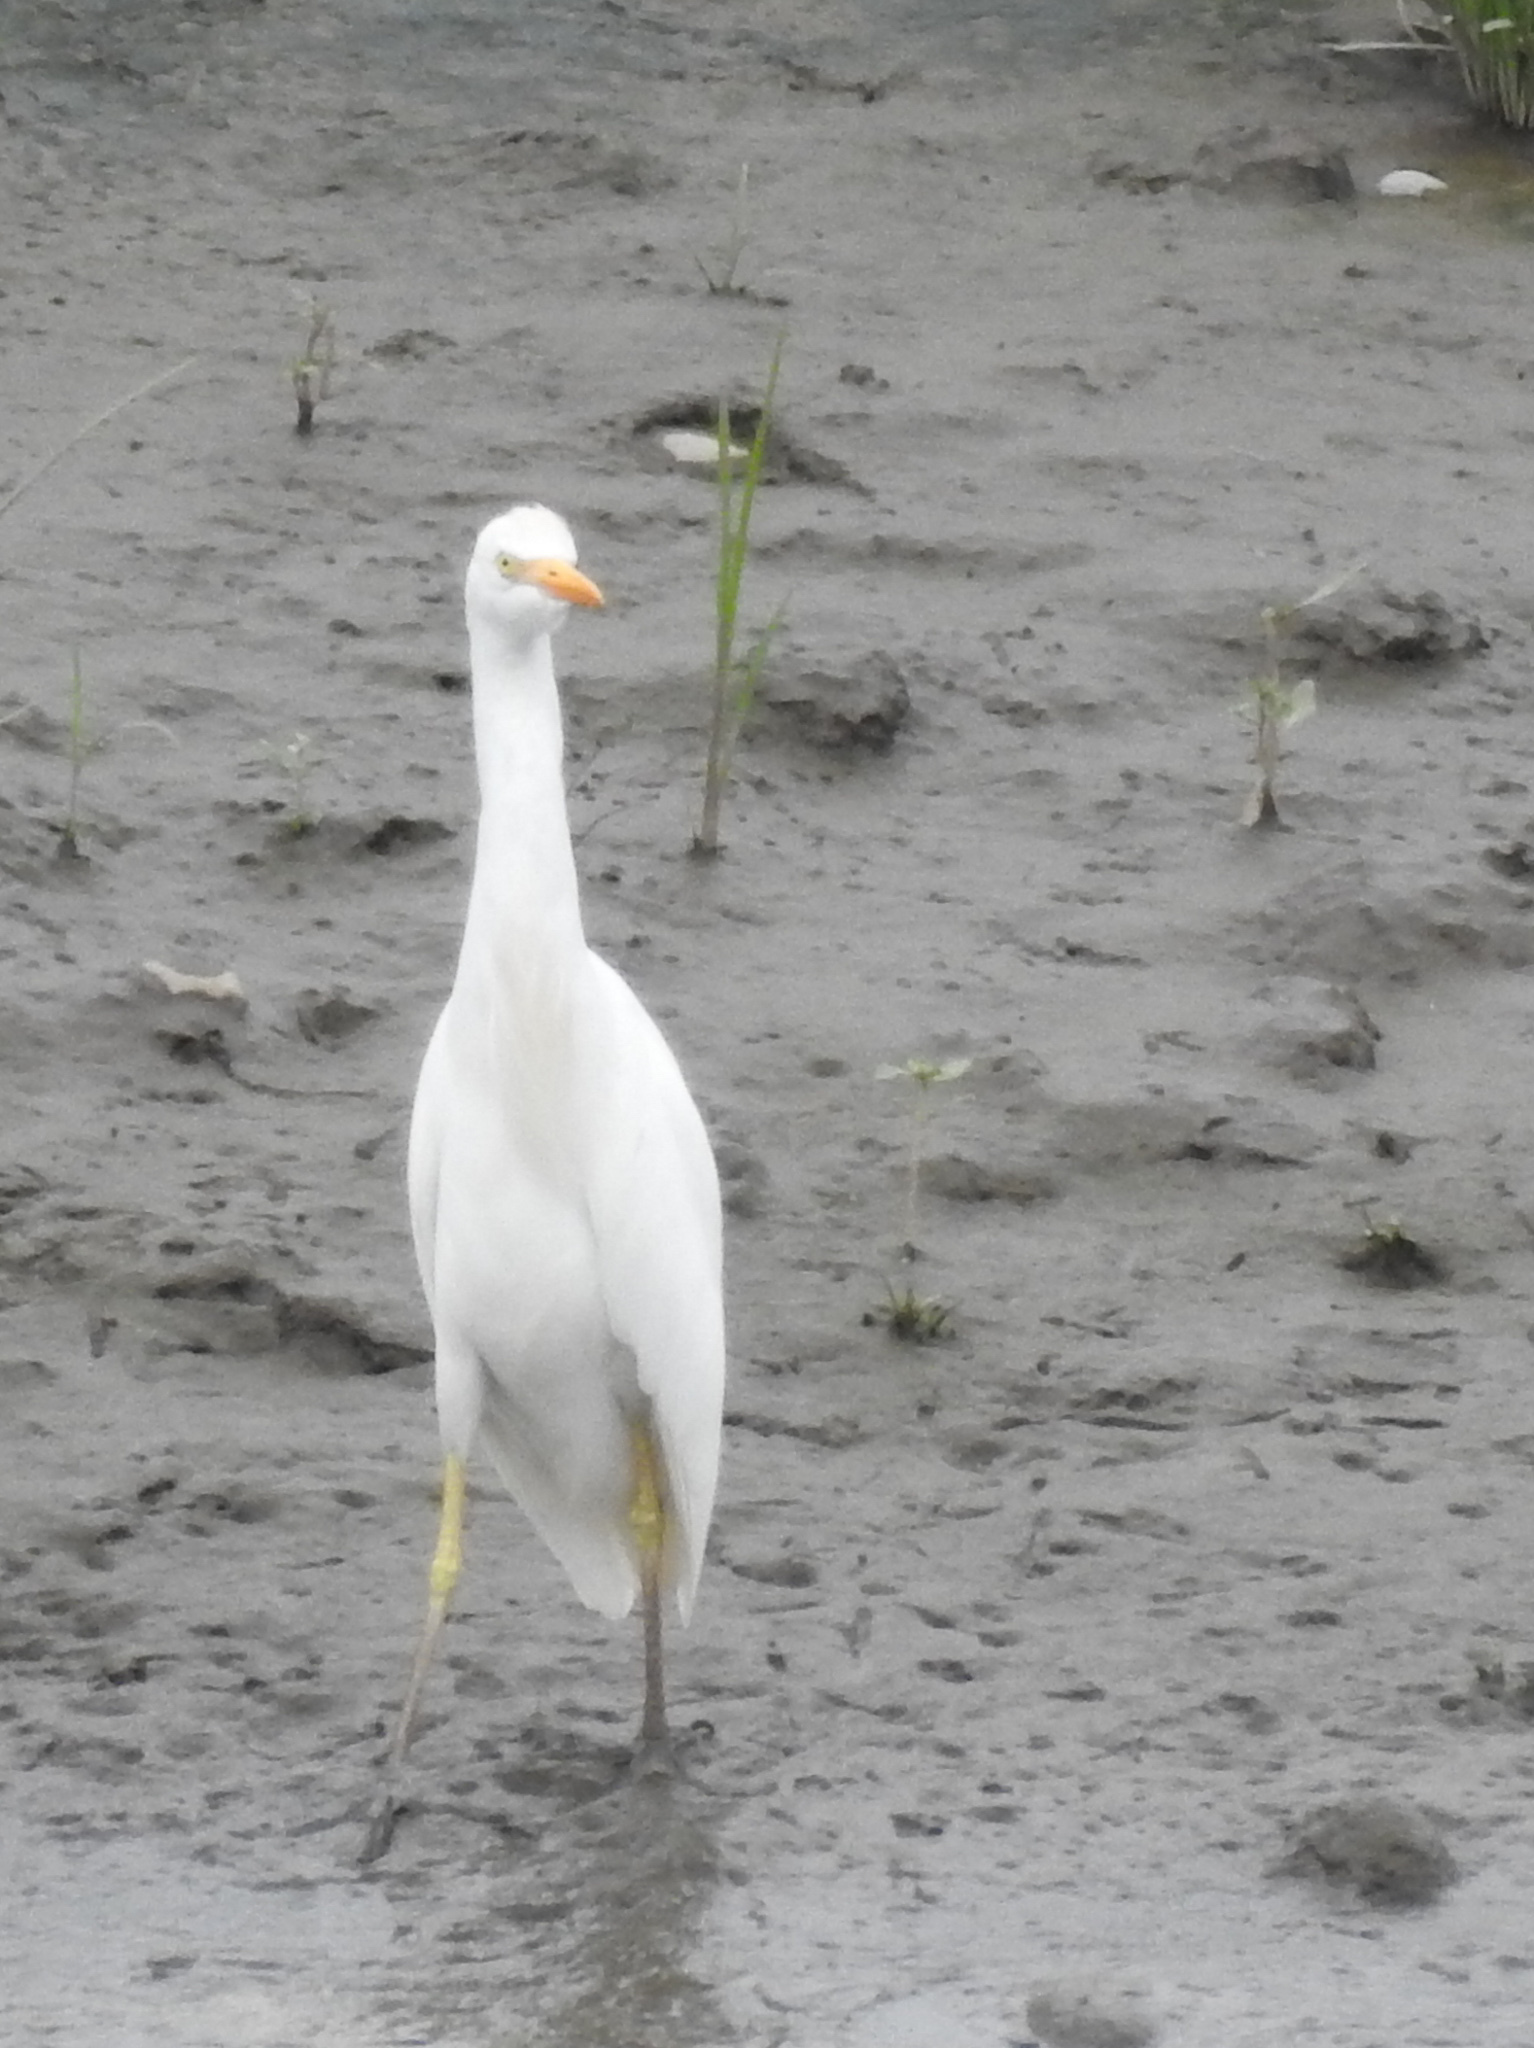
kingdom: Animalia
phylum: Chordata
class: Aves
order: Pelecaniformes
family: Ardeidae
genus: Bubulcus
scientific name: Bubulcus ibis
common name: Cattle egret
